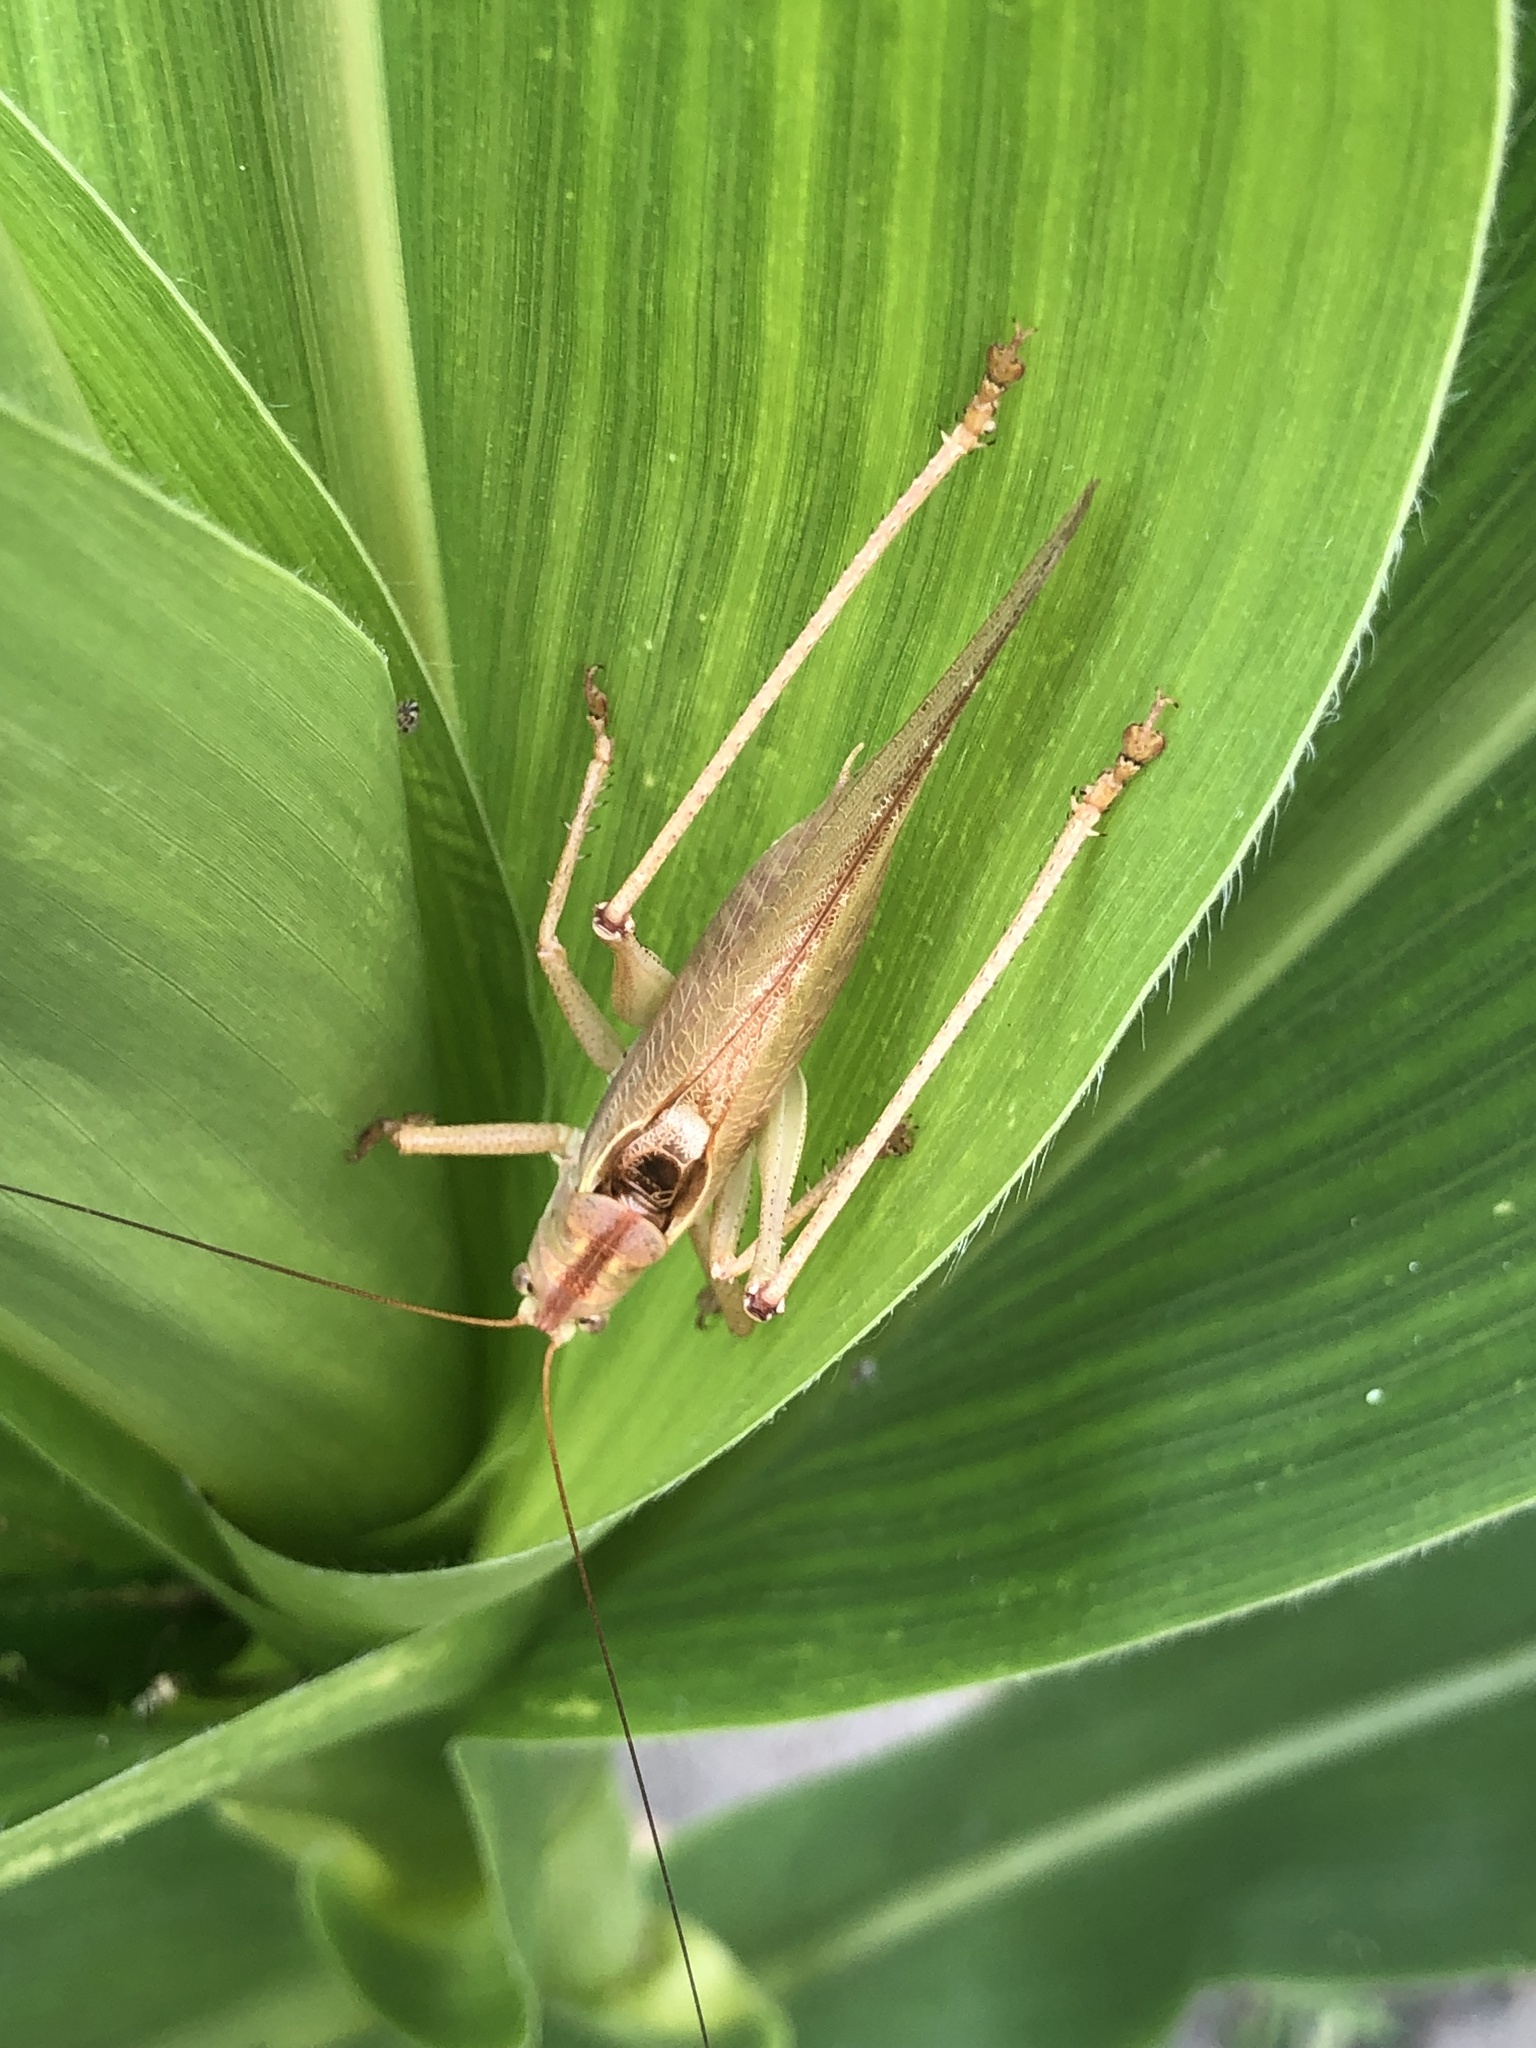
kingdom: Animalia
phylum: Arthropoda
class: Insecta
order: Orthoptera
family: Tettigoniidae
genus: Tettigonia
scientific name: Tettigonia viridissima
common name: Great green bush-cricket
